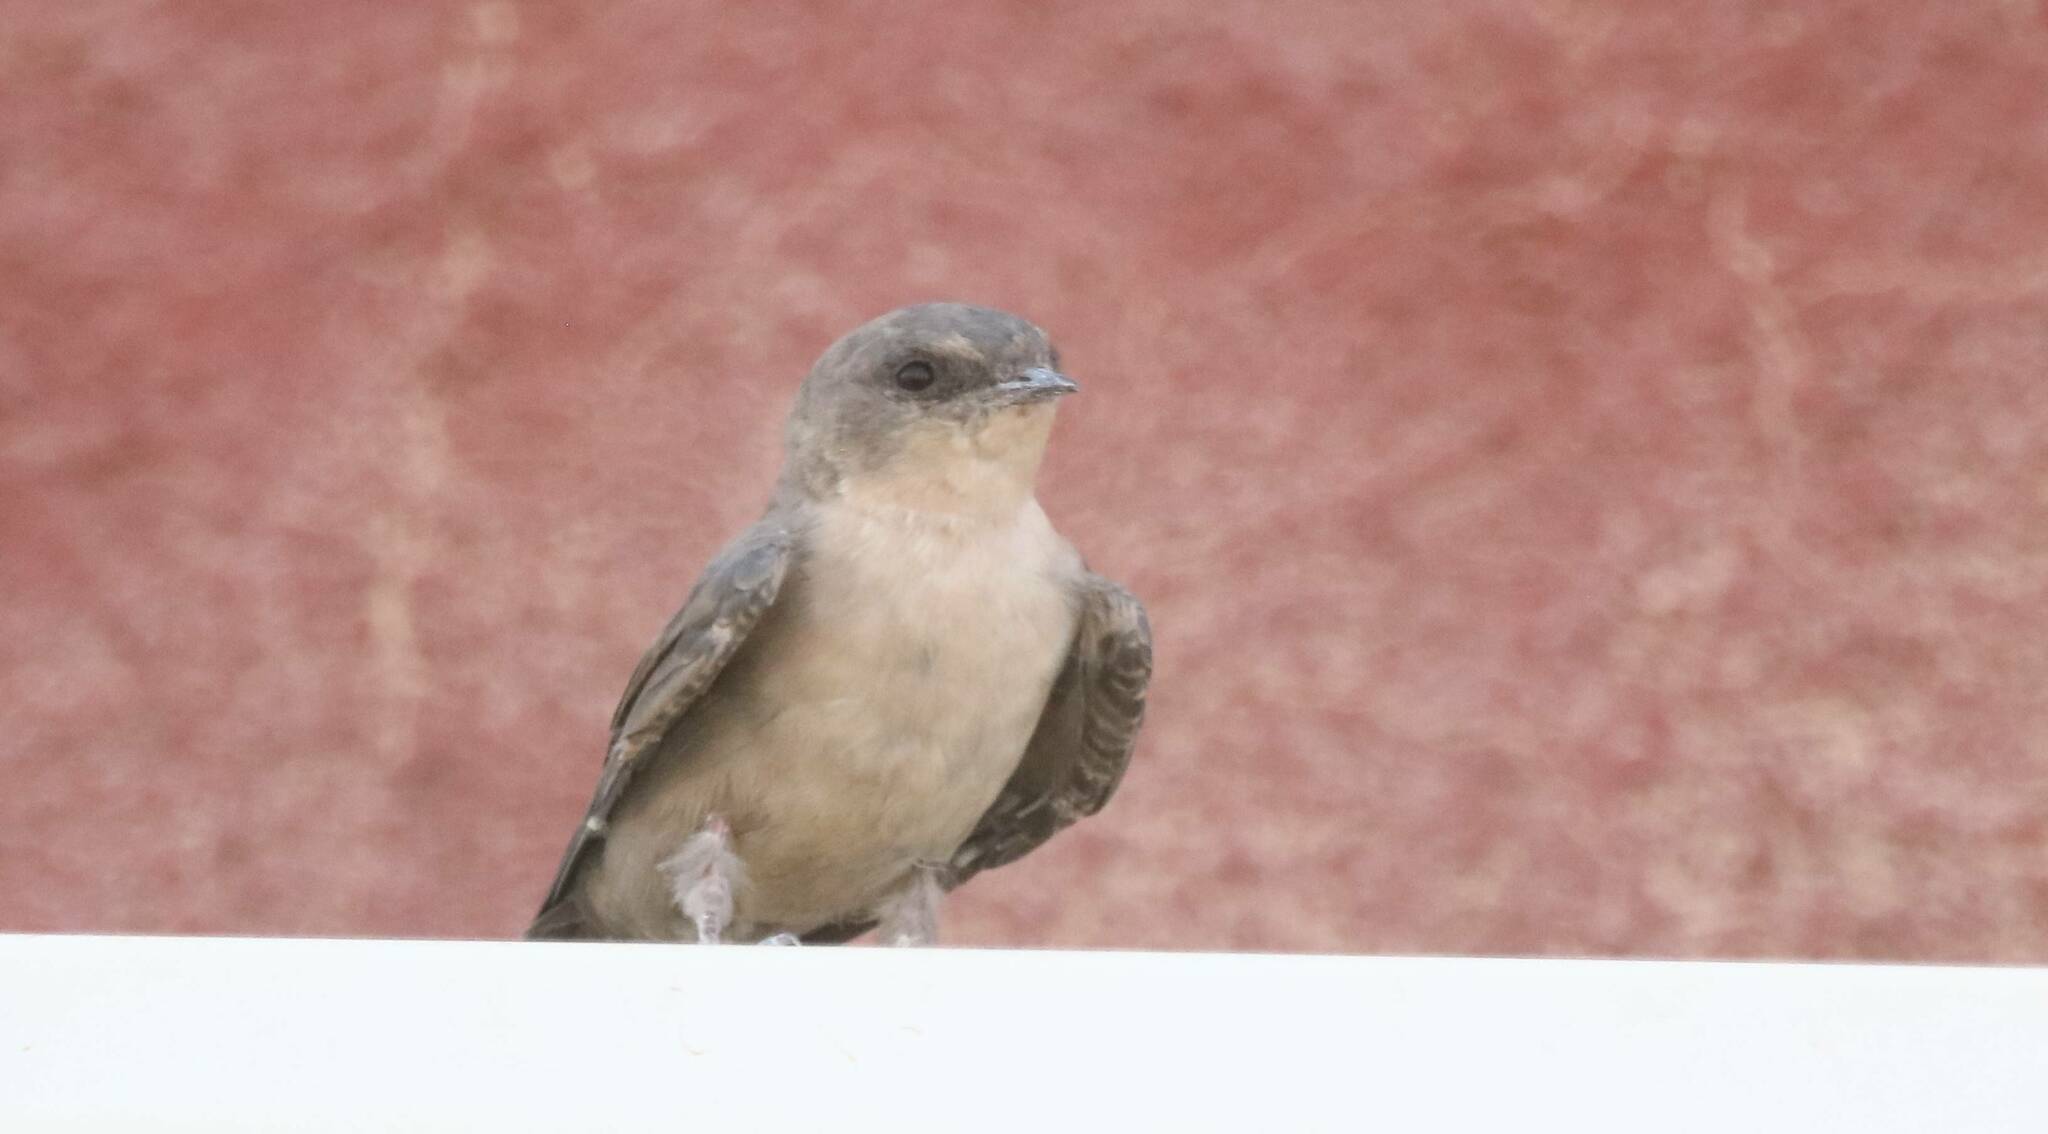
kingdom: Animalia
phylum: Chordata
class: Aves
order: Passeriformes
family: Hirundinidae
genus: Ptyonoprogne
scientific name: Ptyonoprogne fuligula
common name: Rock martin
